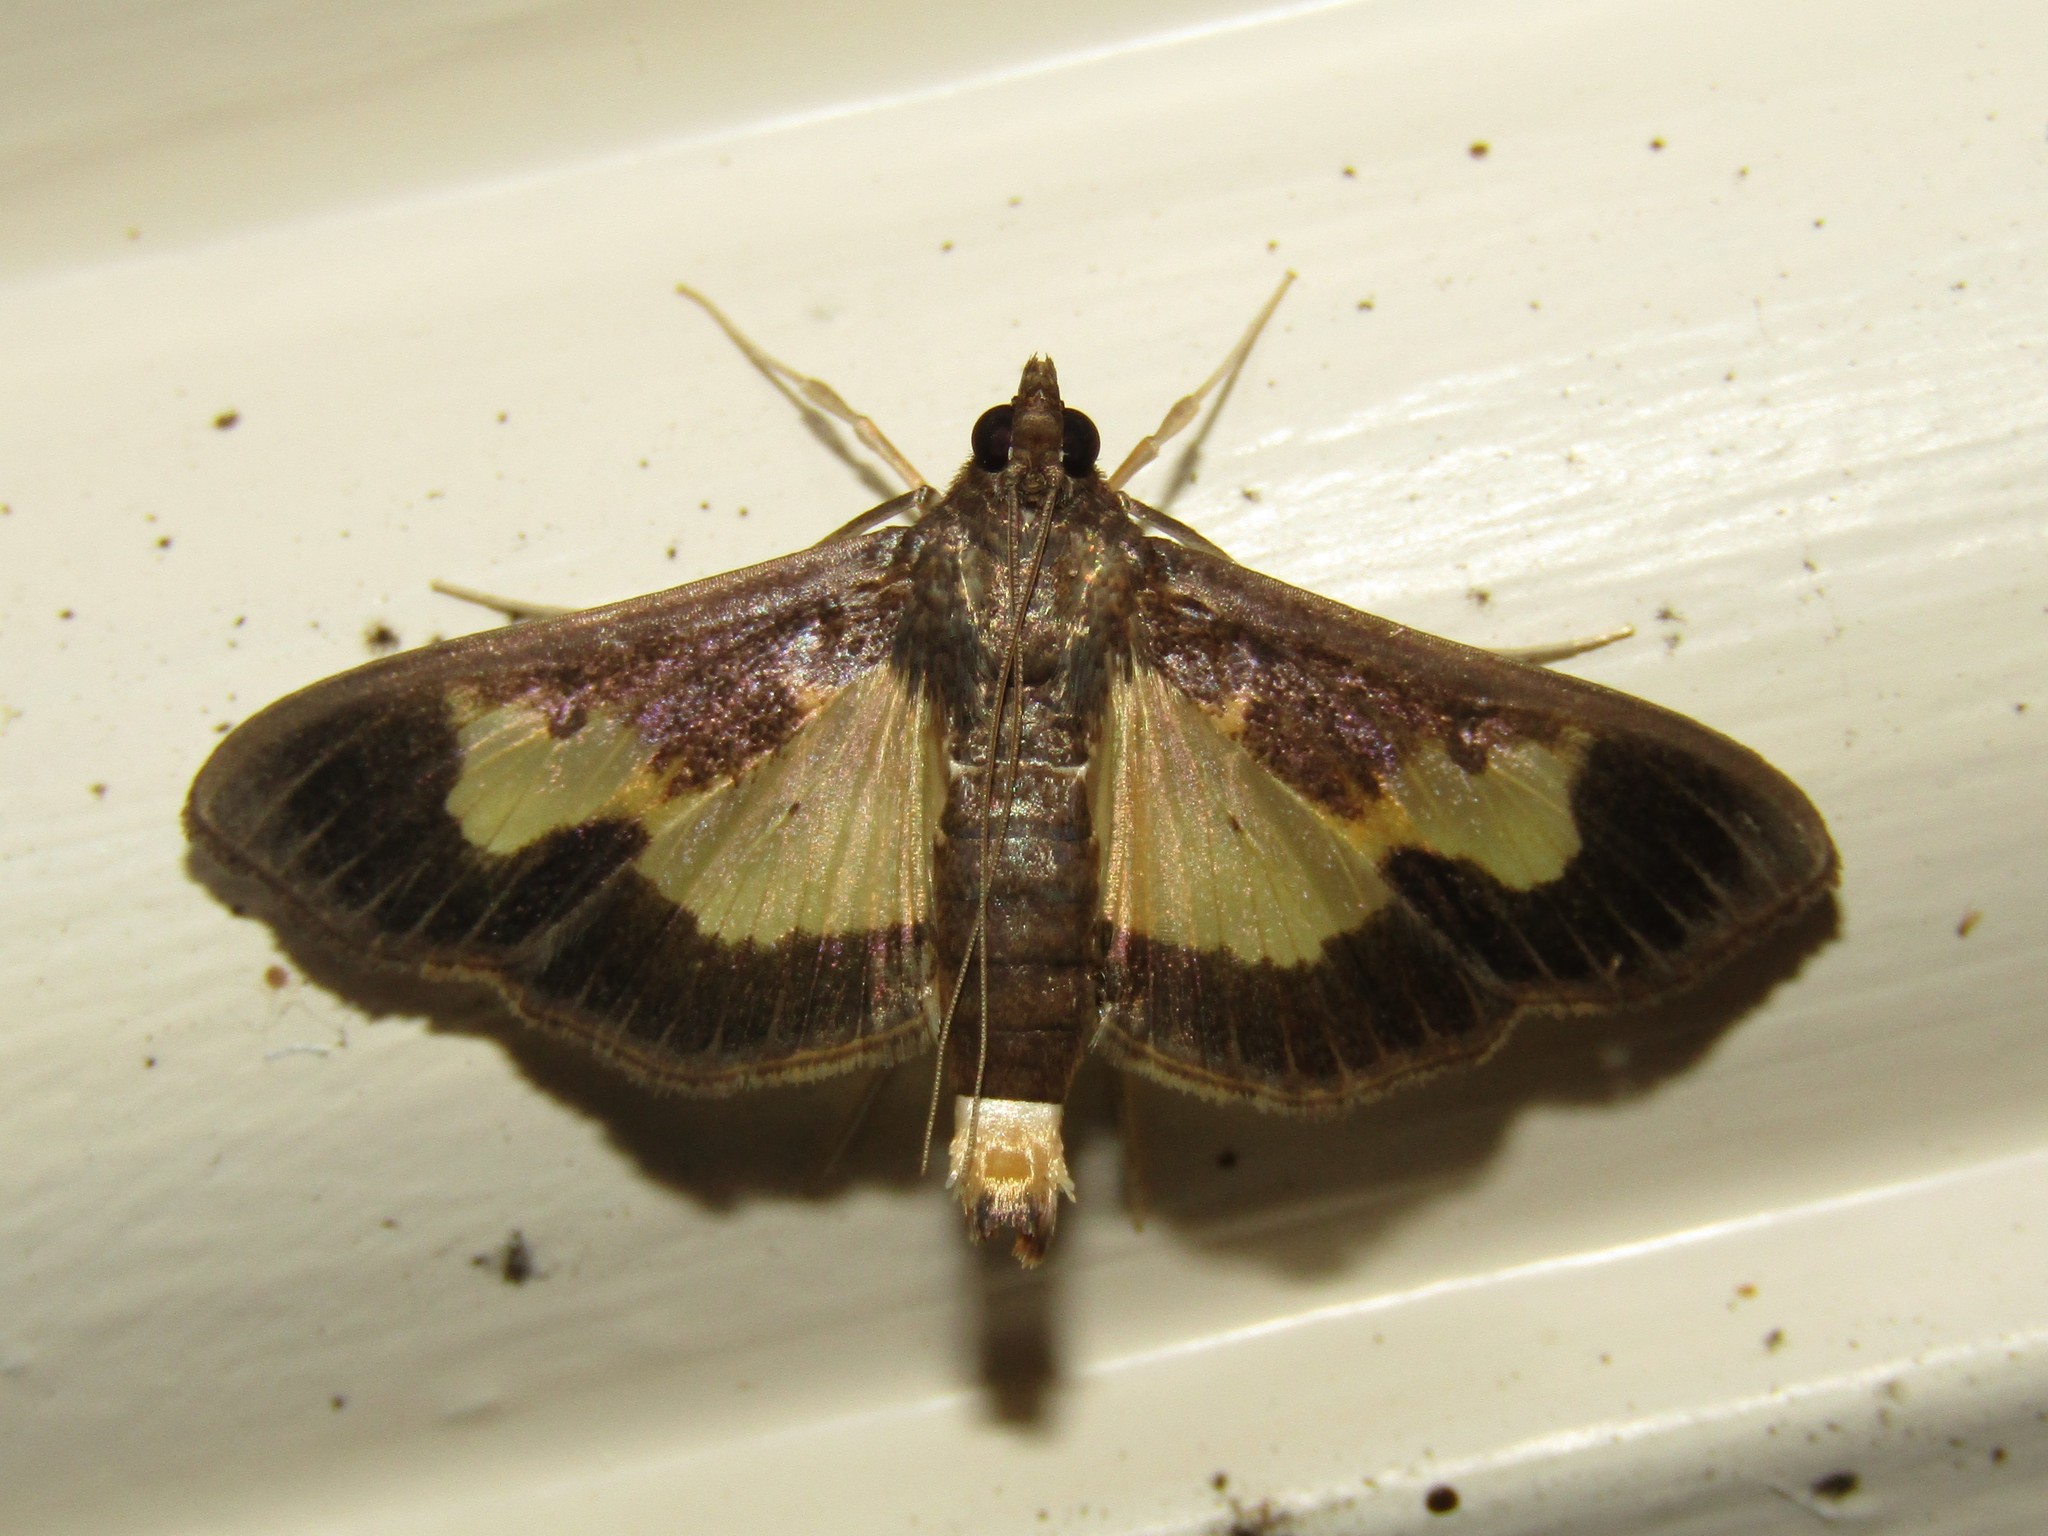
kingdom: Animalia
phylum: Arthropoda
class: Insecta
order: Lepidoptera
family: Crambidae
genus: Cryptographis
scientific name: Cryptographis nitidalis
